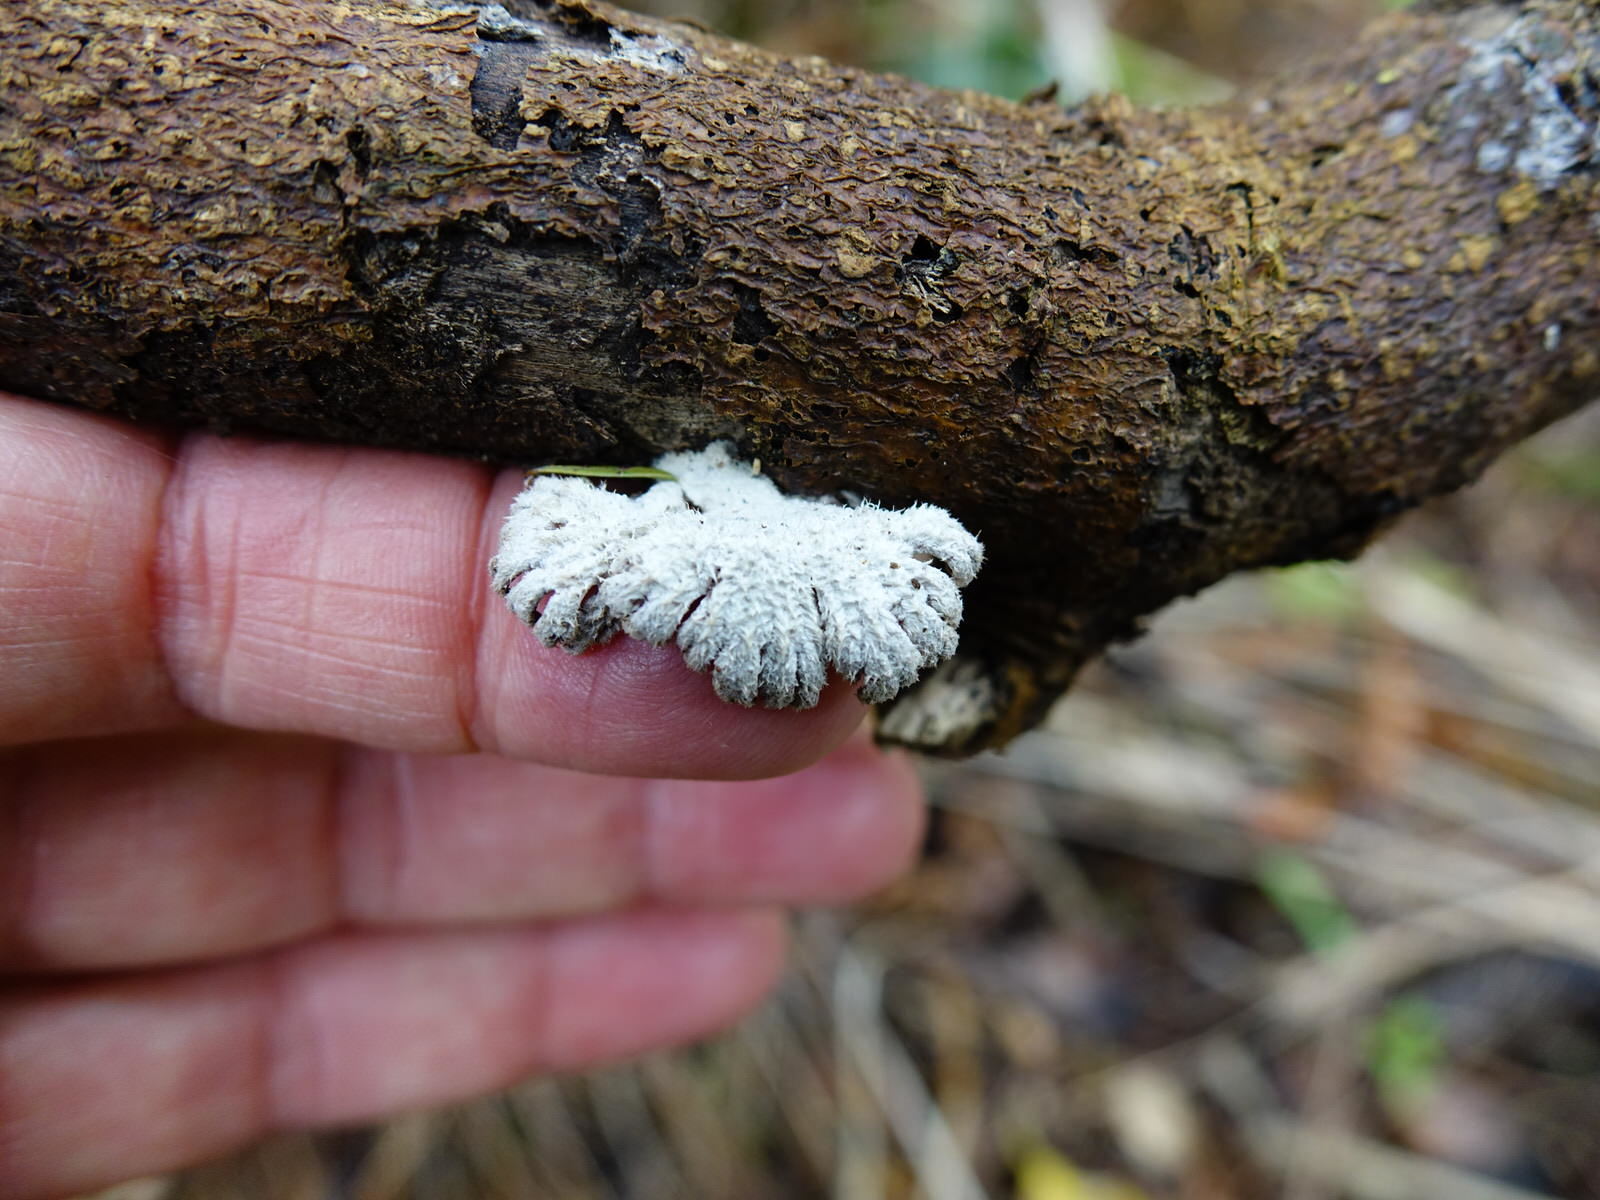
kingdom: Fungi
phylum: Basidiomycota
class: Agaricomycetes
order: Agaricales
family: Schizophyllaceae
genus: Schizophyllum
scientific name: Schizophyllum commune
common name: Common porecrust
